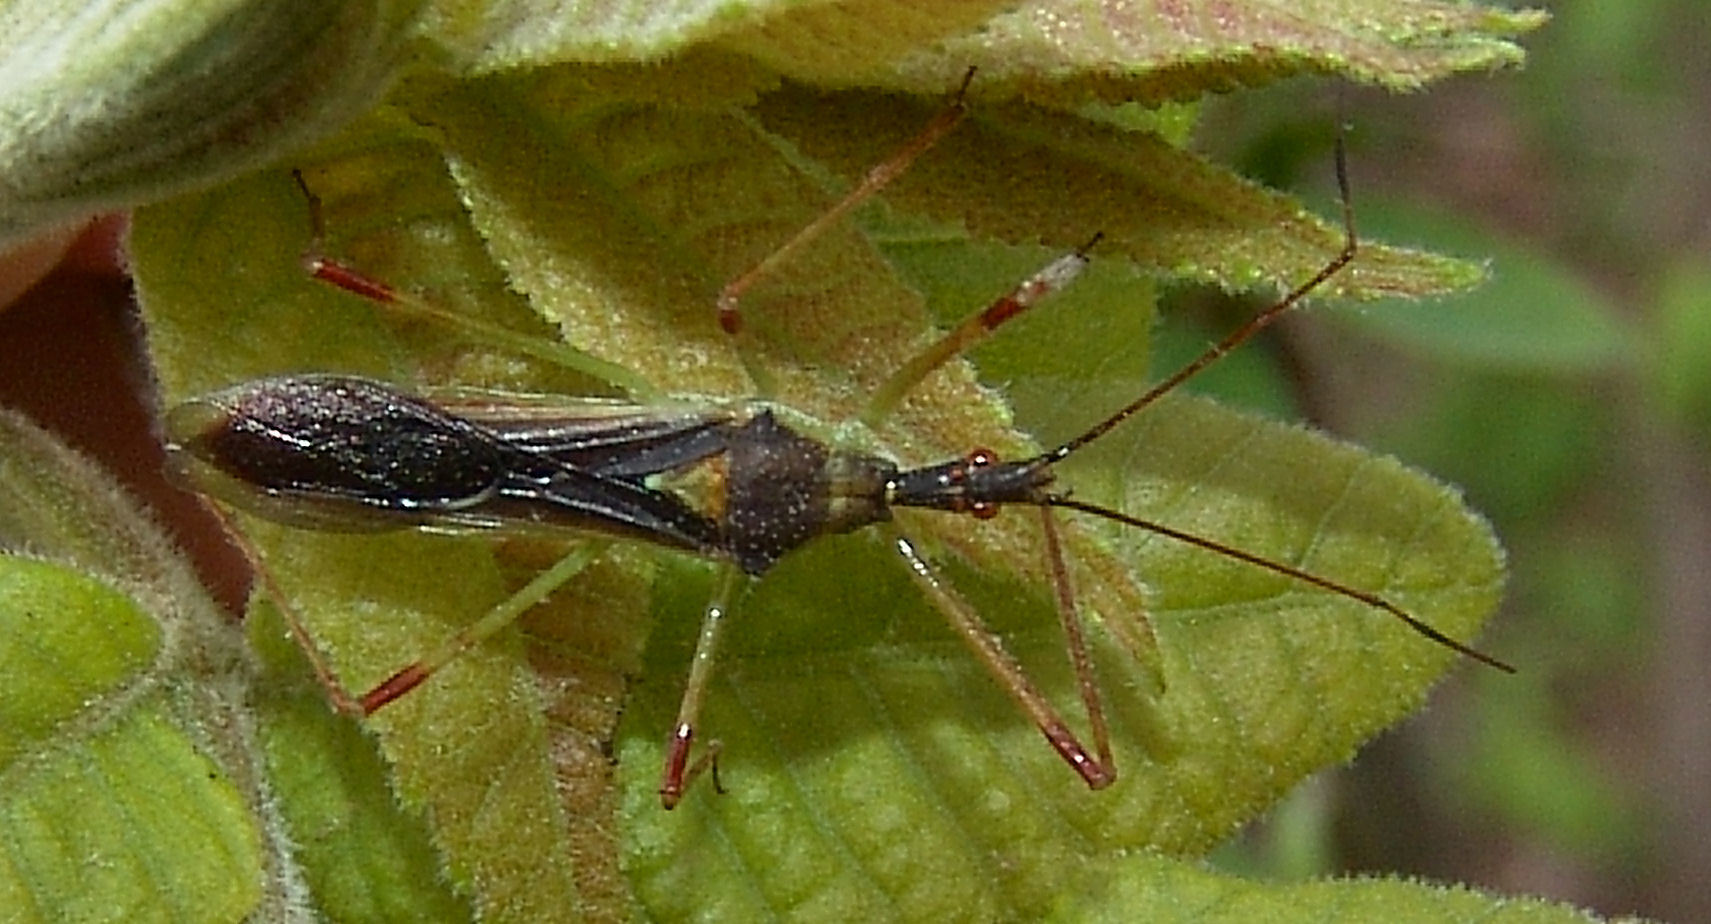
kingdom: Animalia
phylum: Arthropoda
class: Insecta
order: Hemiptera
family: Reduviidae
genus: Zelus
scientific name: Zelus luridus
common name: Pale green assassin bug
